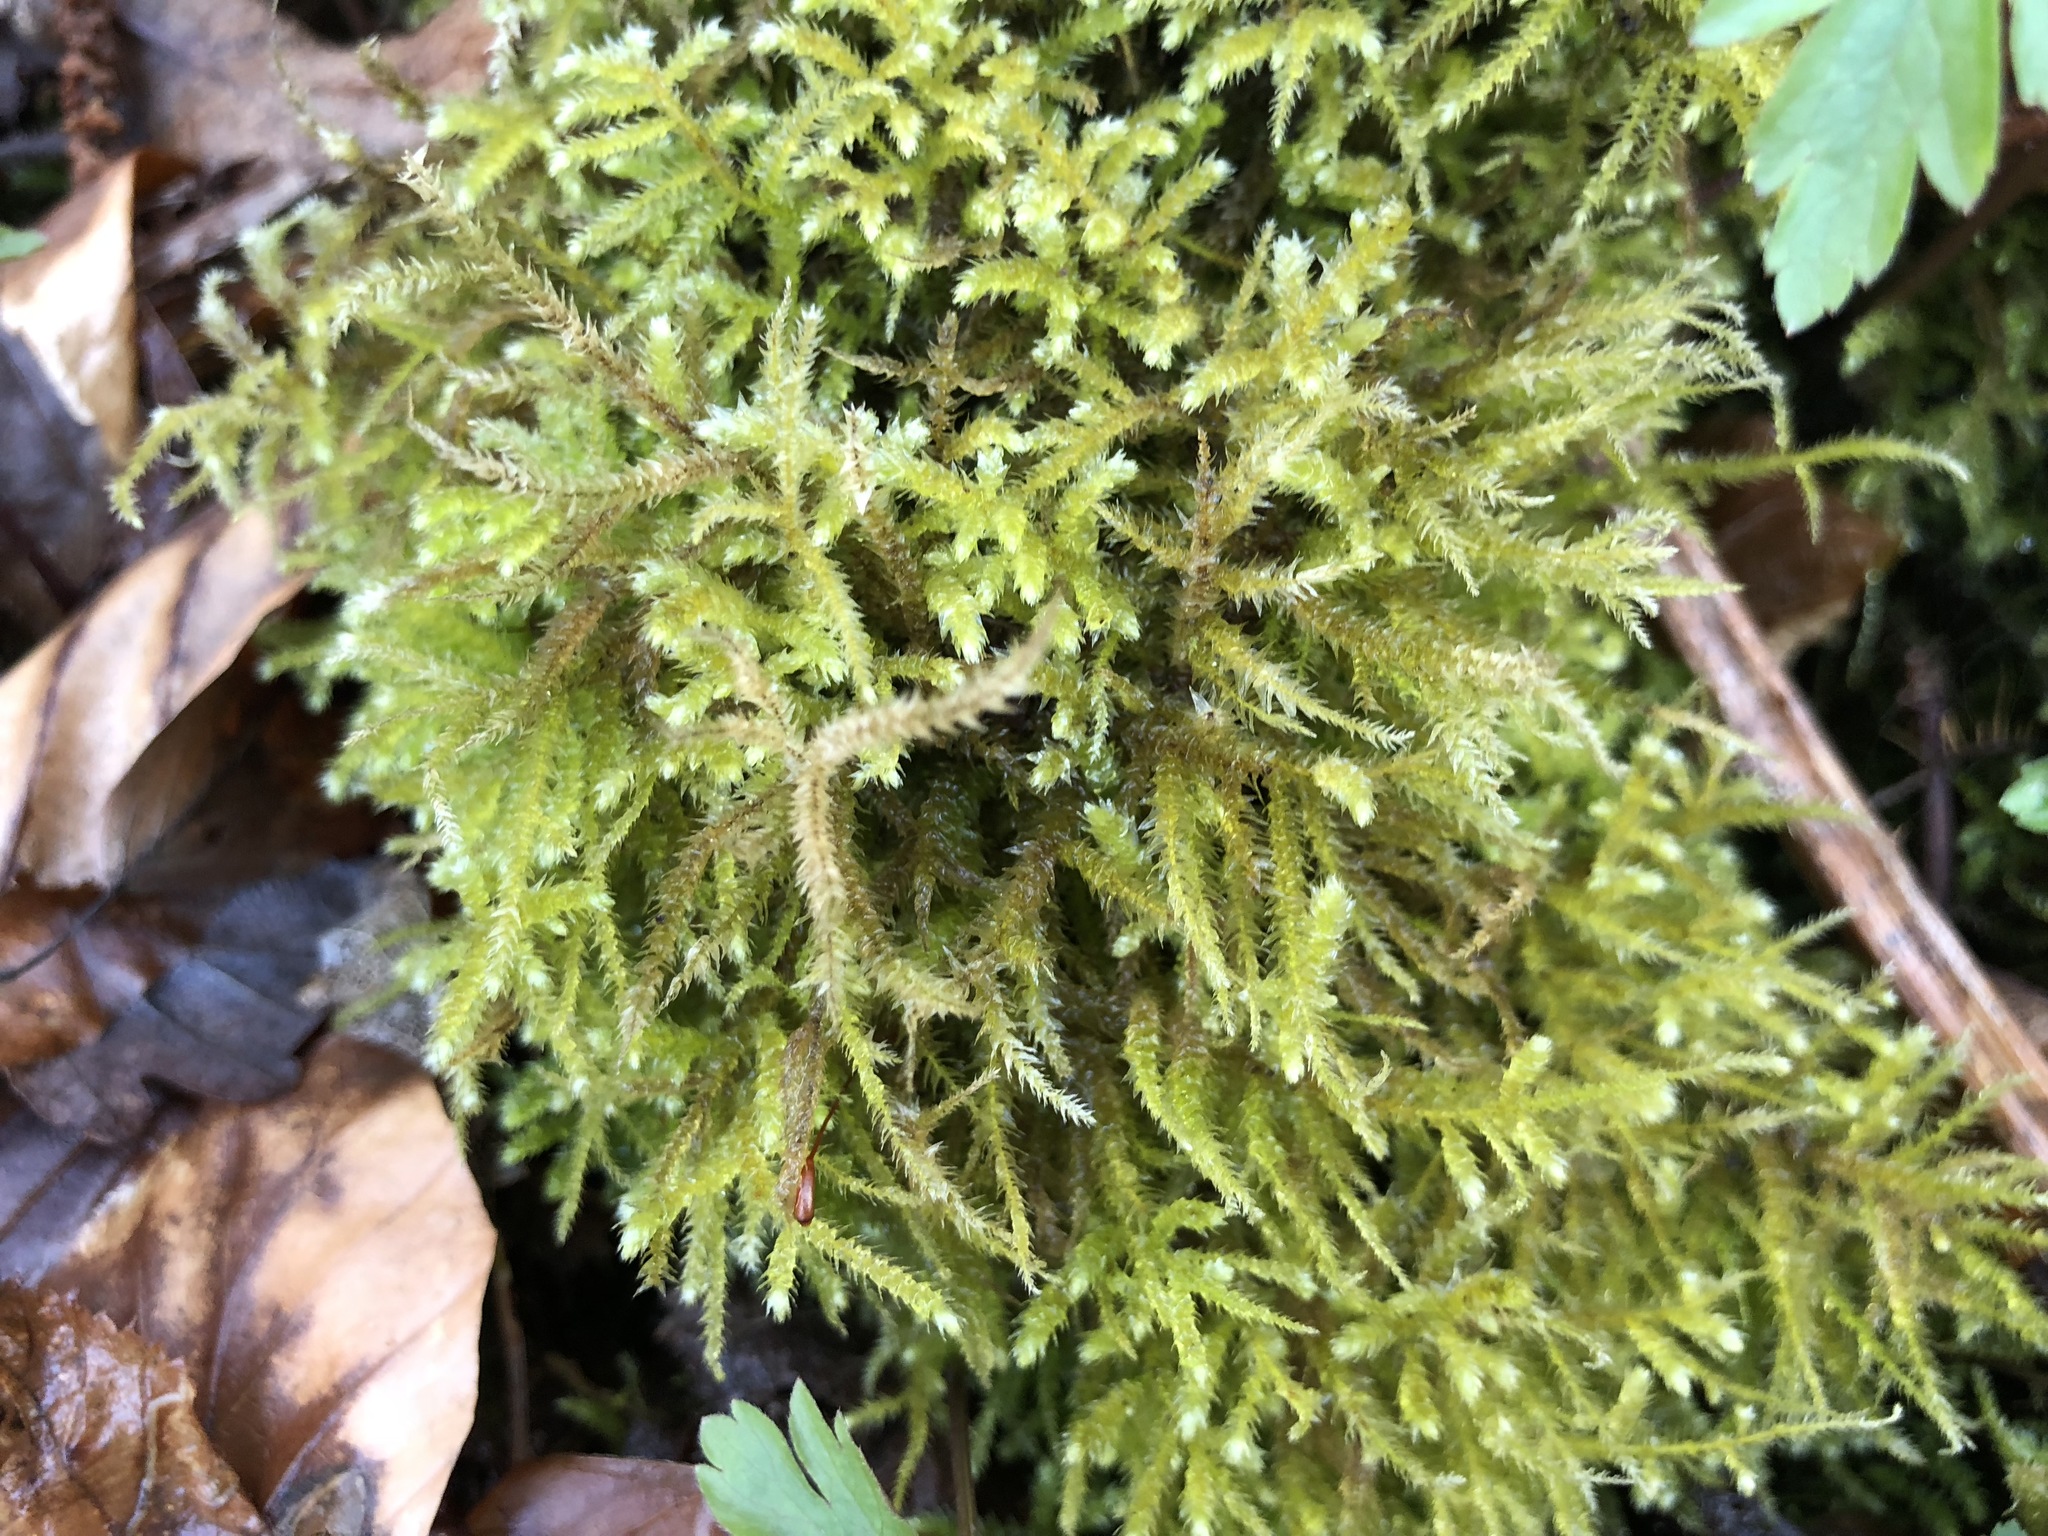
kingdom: Plantae
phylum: Bryophyta
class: Bryopsida
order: Hypnales
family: Brachytheciaceae
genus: Eurhynchium
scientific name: Eurhynchium striatum
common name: Common striated feather-moss
